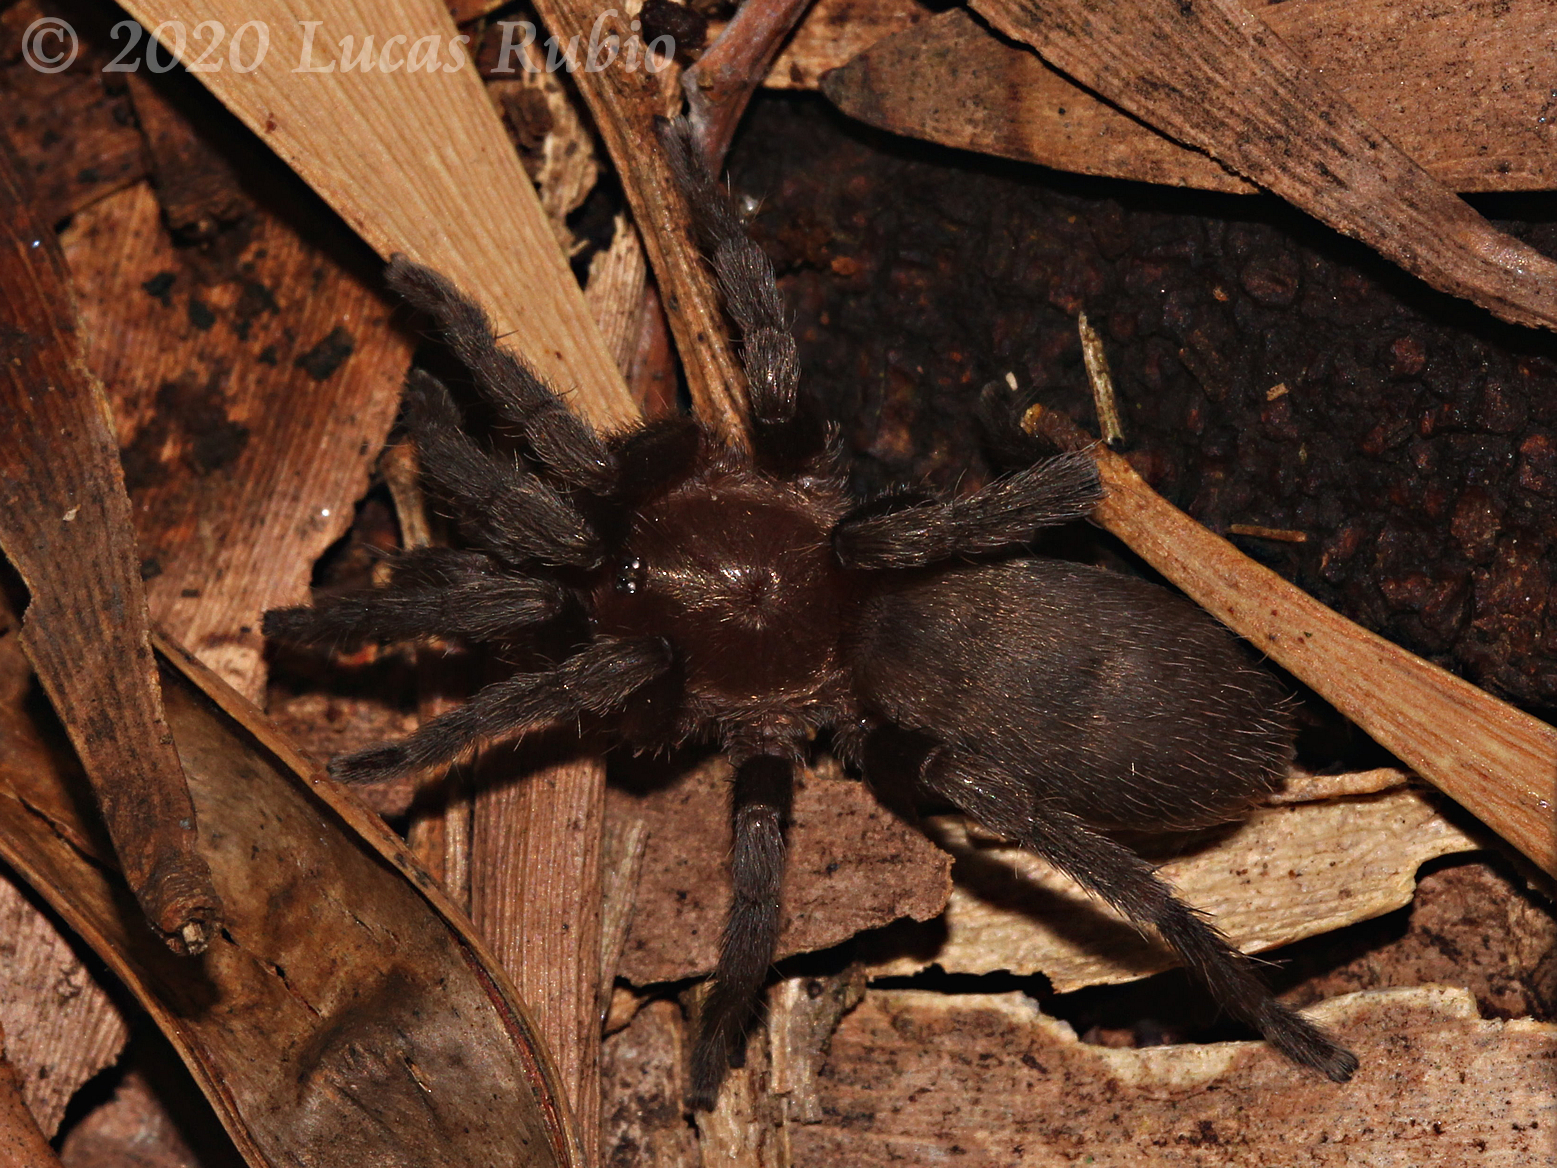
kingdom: Animalia
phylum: Arthropoda
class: Arachnida
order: Araneae
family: Theraphosidae
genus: Catumiri
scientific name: Catumiri argentinense
